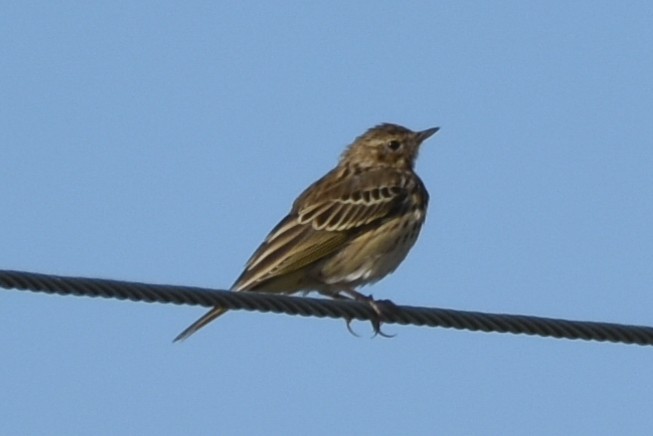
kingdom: Animalia
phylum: Chordata
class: Aves
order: Passeriformes
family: Motacillidae
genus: Anthus
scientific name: Anthus trivialis
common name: Tree pipit
